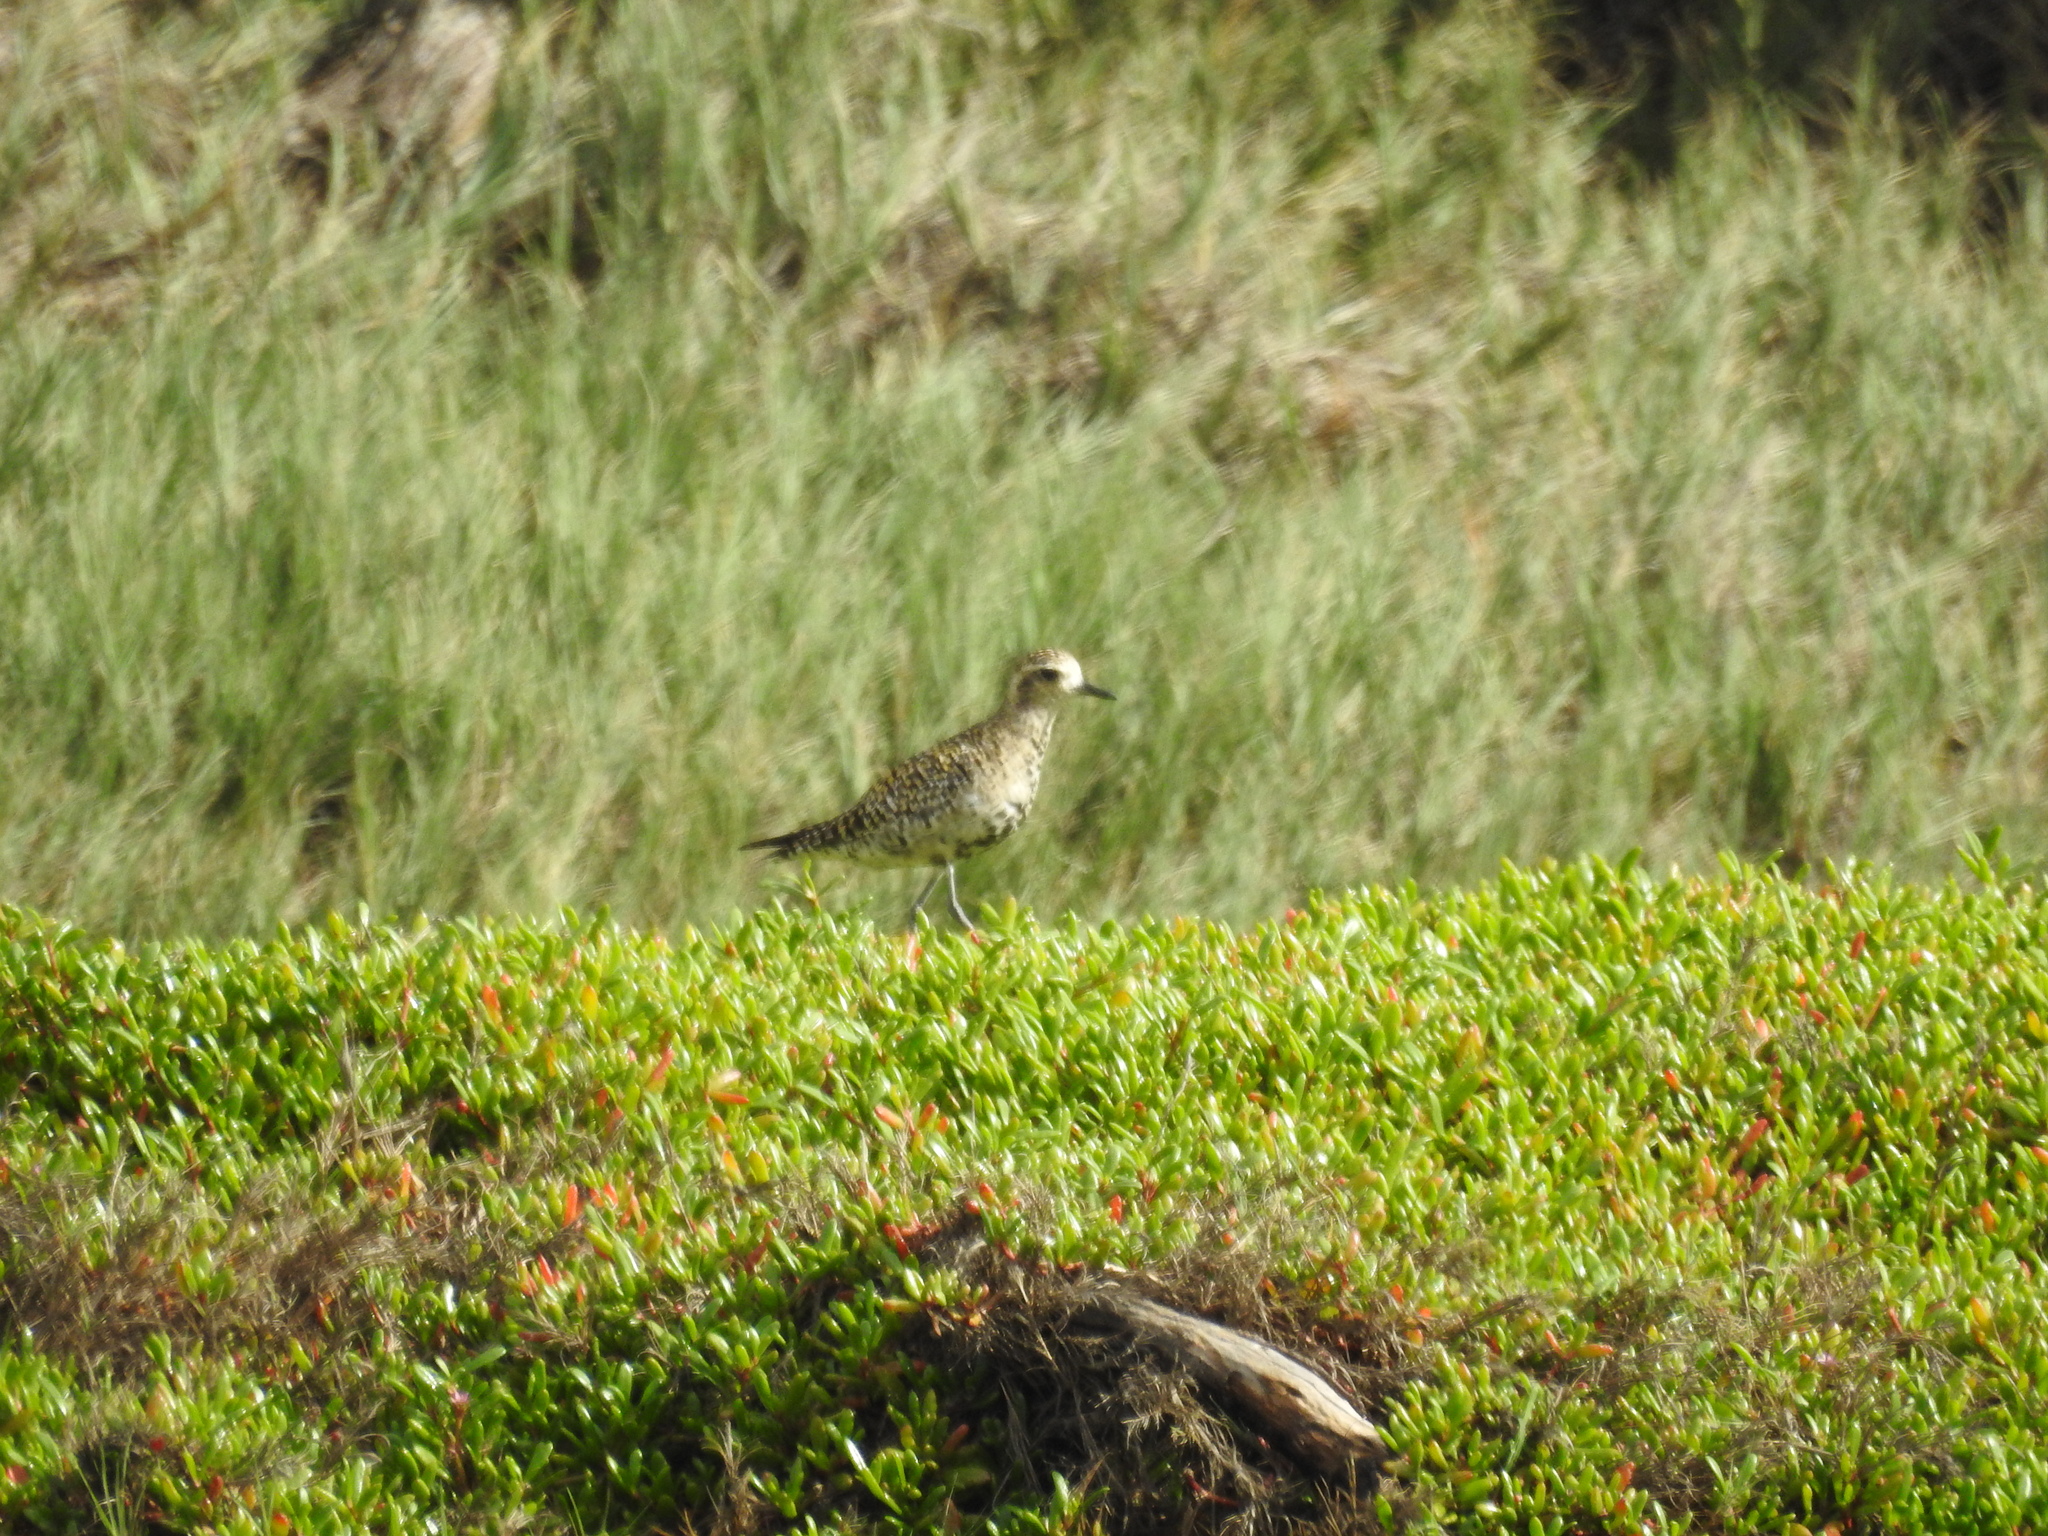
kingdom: Animalia
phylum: Chordata
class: Aves
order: Charadriiformes
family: Charadriidae
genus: Pluvialis
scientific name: Pluvialis fulva
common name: Pacific golden plover
